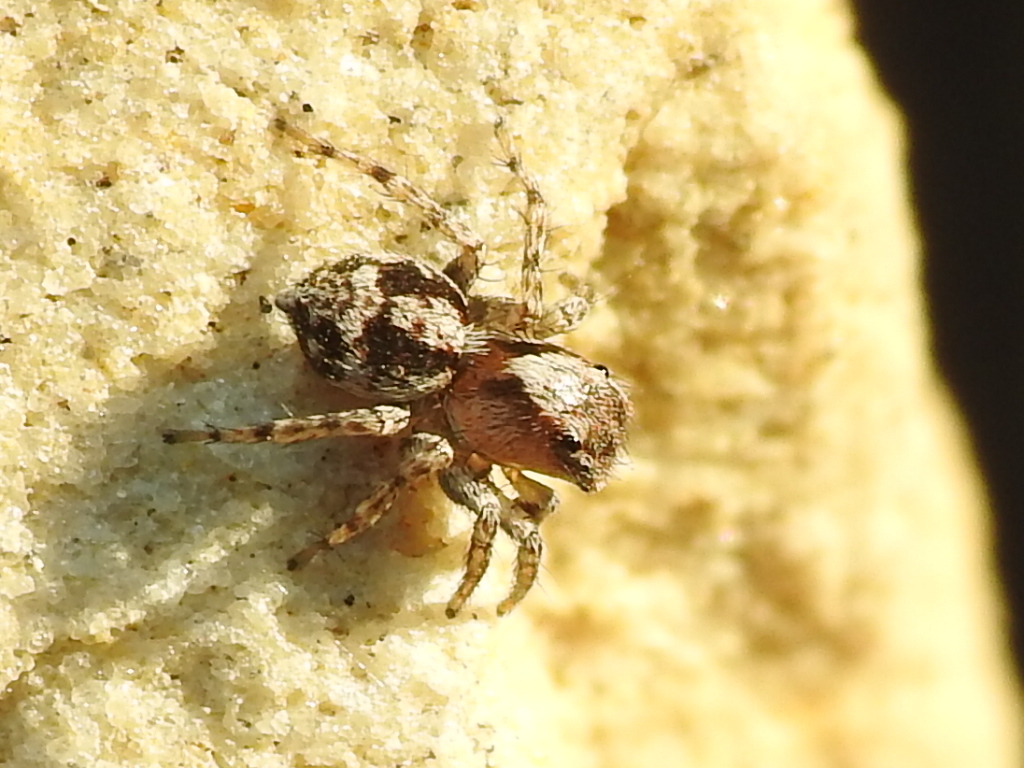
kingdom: Animalia
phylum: Arthropoda
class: Arachnida
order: Araneae
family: Salticidae
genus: Naphrys
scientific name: Naphrys pulex
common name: Flea jumping spider
